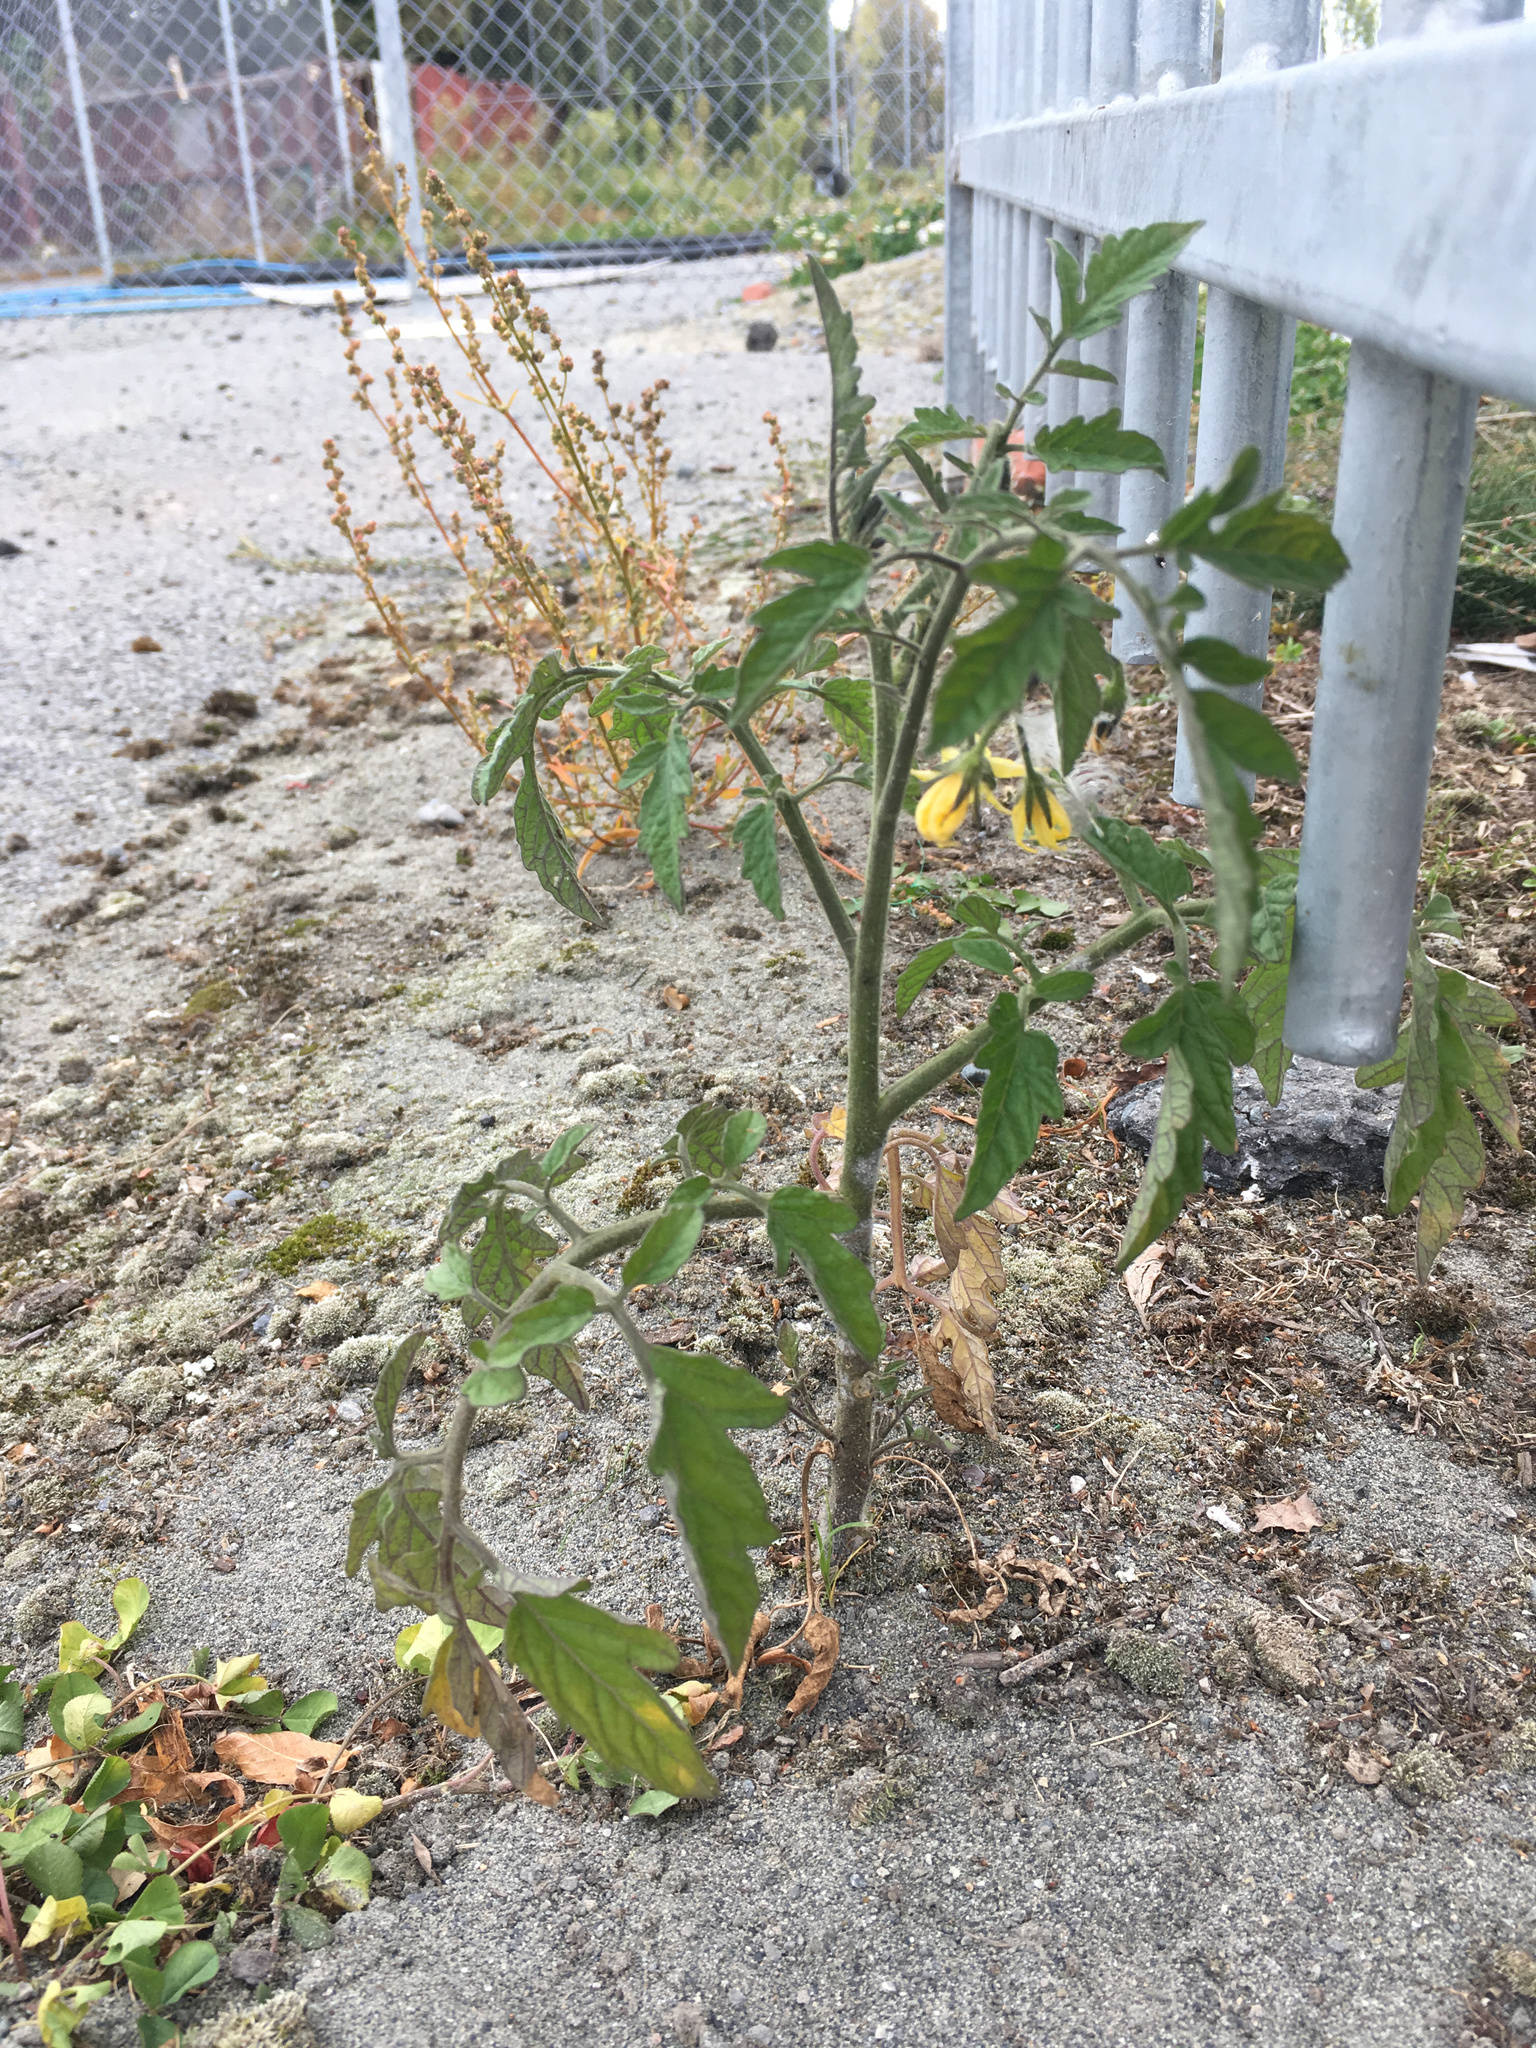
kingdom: Plantae
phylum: Tracheophyta
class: Magnoliopsida
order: Solanales
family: Solanaceae
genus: Solanum
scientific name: Solanum lycopersicum
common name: Garden tomato
